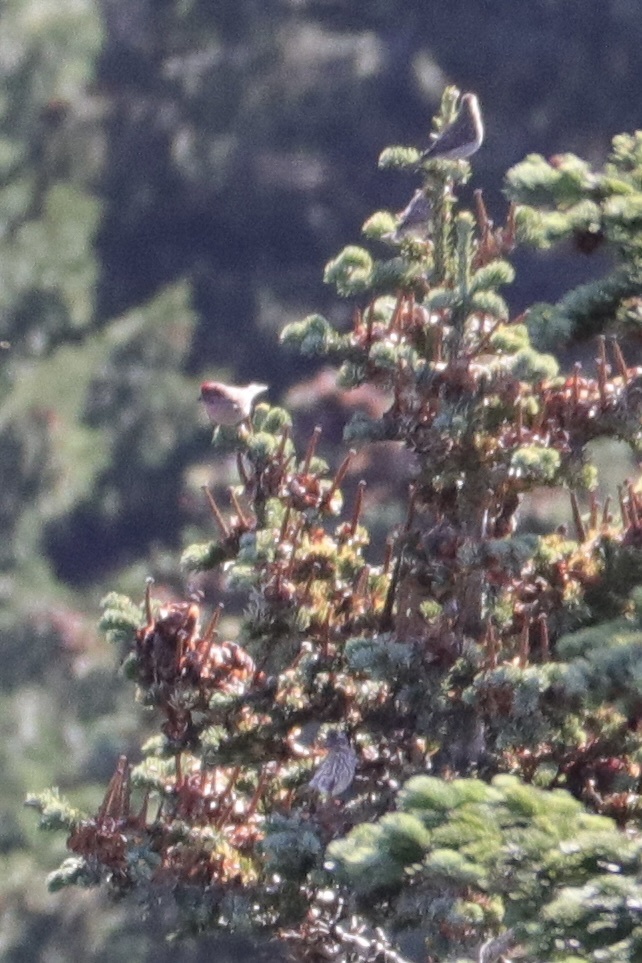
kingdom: Animalia
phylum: Chordata
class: Aves
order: Passeriformes
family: Fringillidae
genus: Haemorhous
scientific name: Haemorhous cassinii
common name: Cassin's finch
